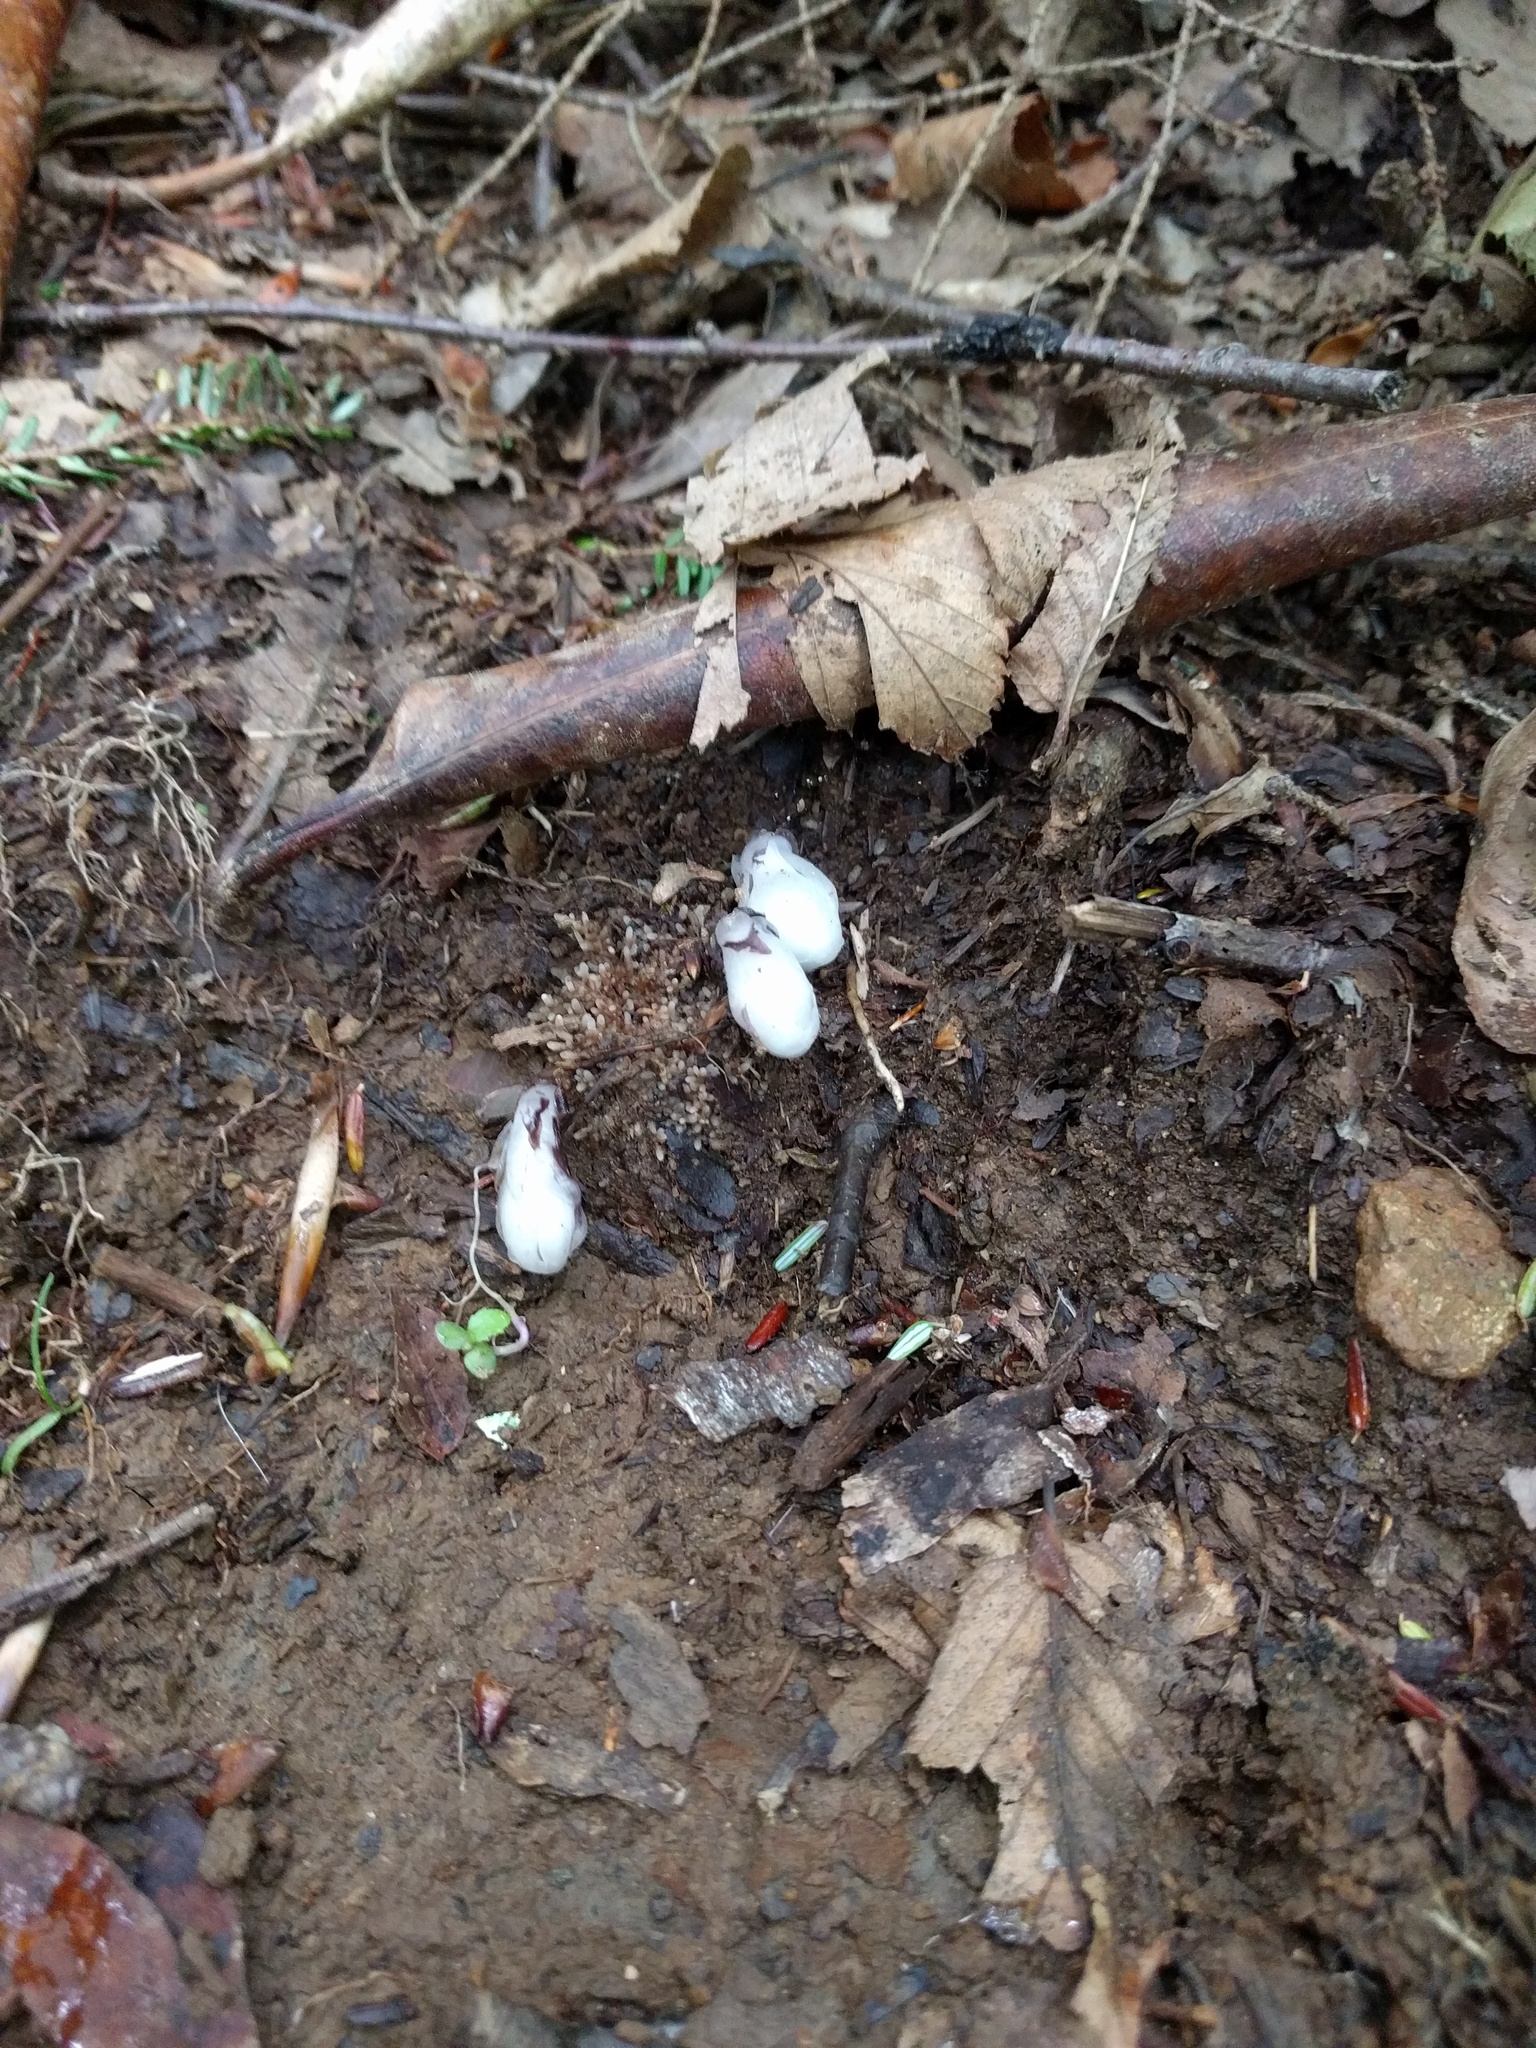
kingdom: Plantae
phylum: Tracheophyta
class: Magnoliopsida
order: Ericales
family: Ericaceae
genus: Monotropa
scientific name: Monotropa uniflora
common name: Convulsion root
